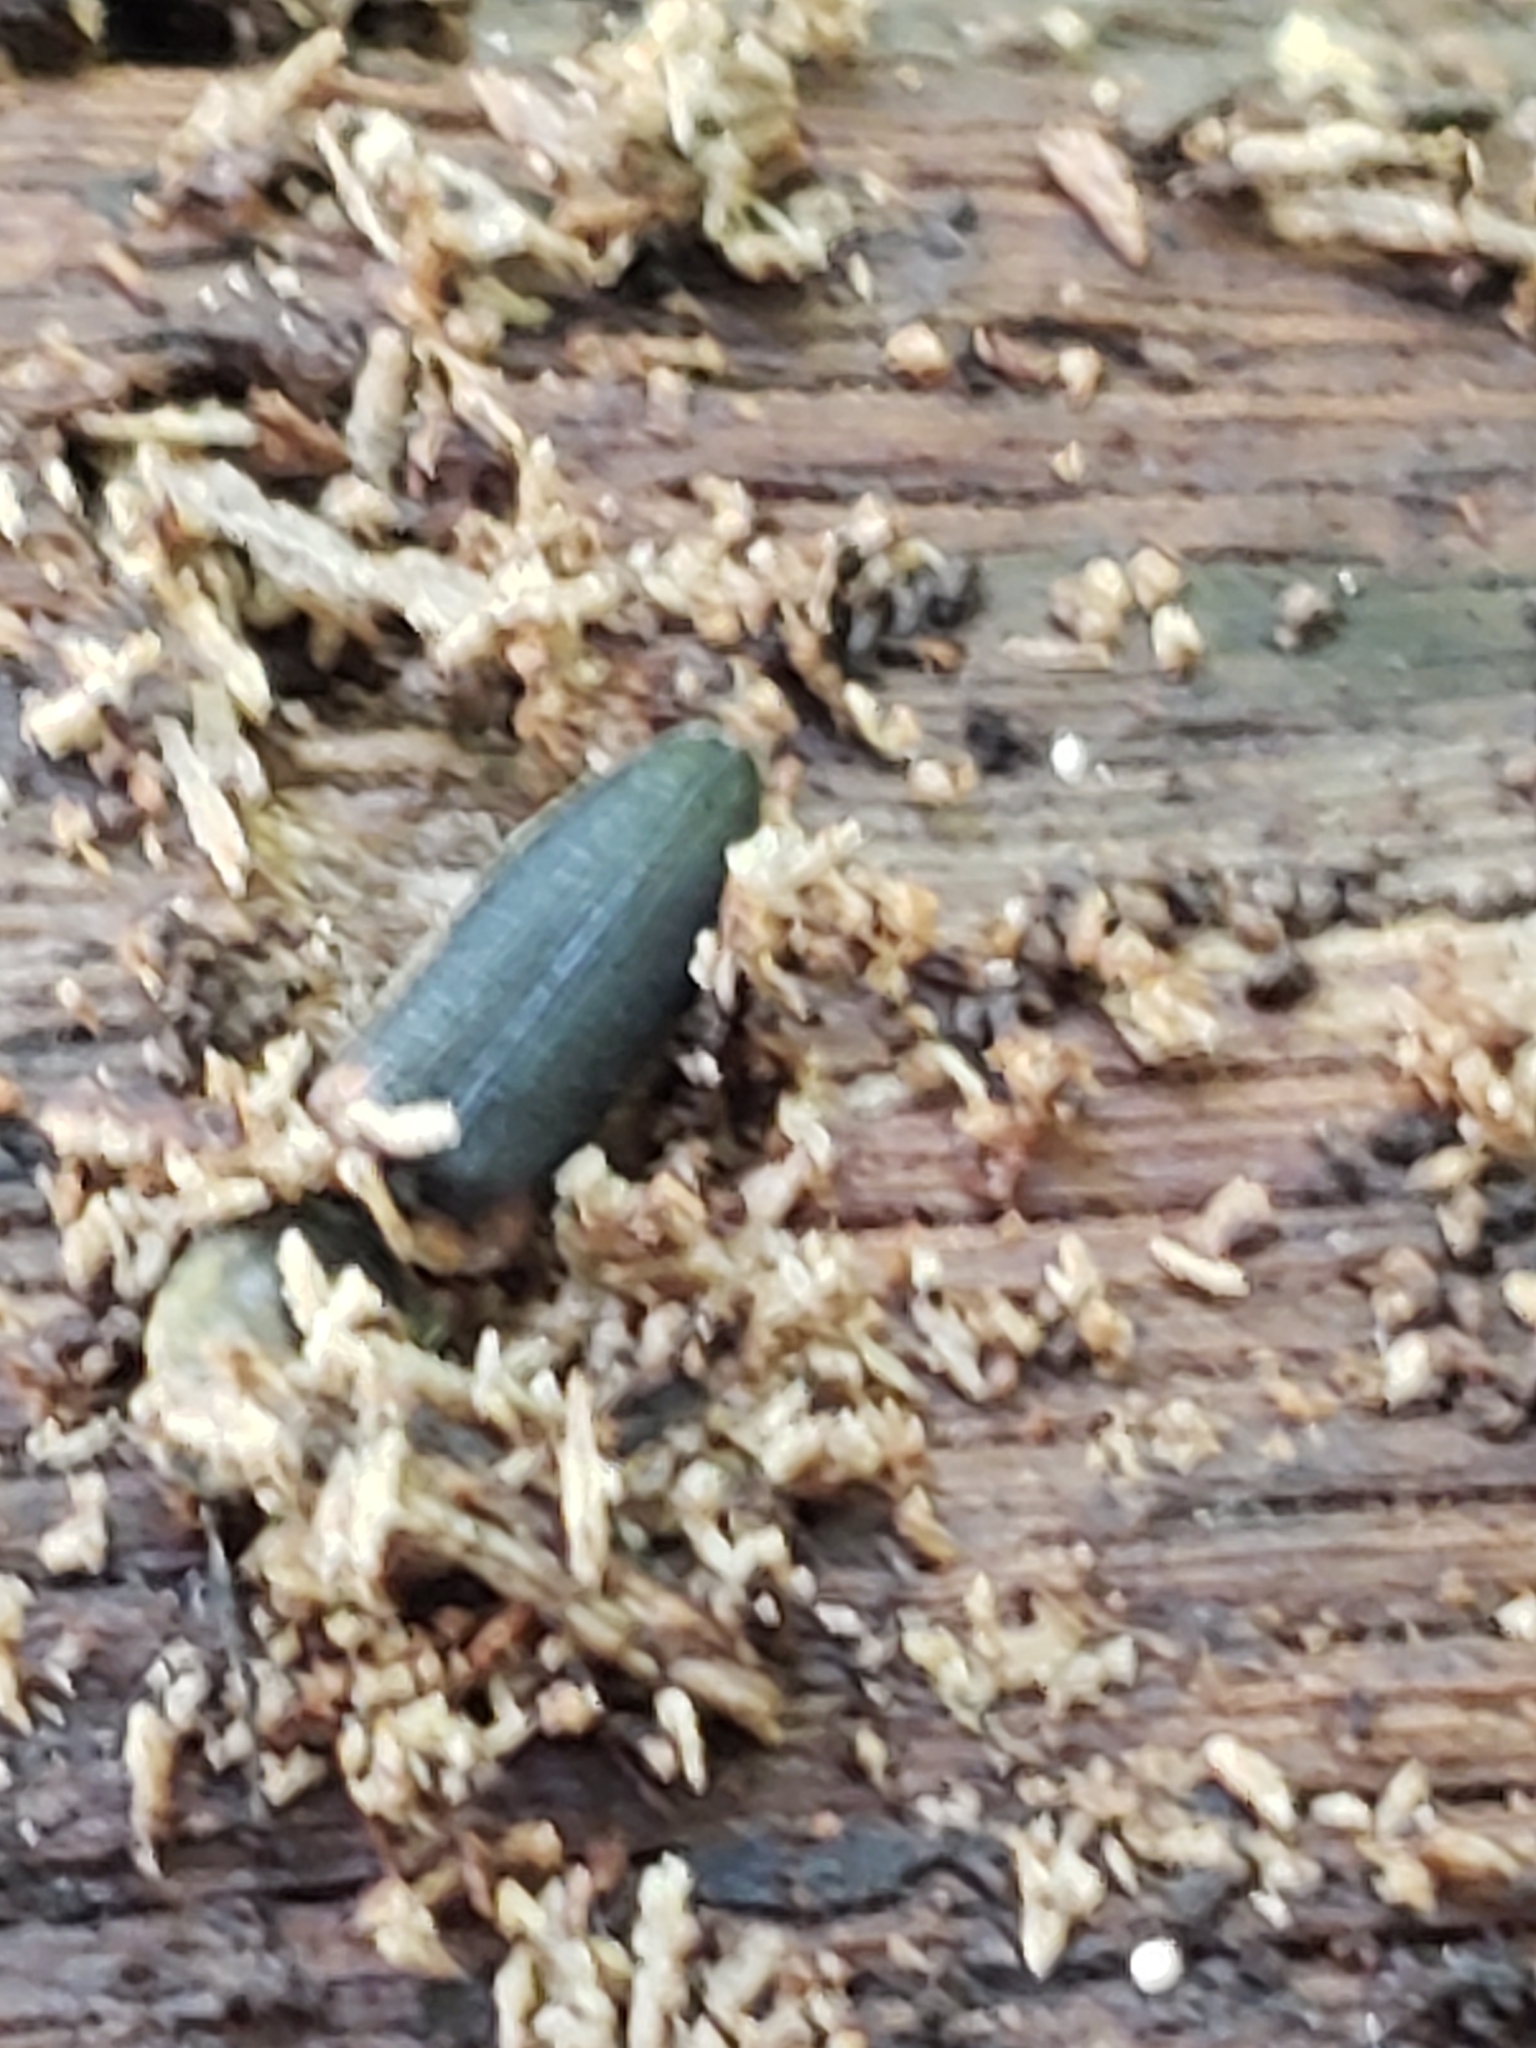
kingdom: Animalia
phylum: Arthropoda
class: Insecta
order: Coleoptera
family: Elateridae
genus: Athous
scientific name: Athous scapularis
